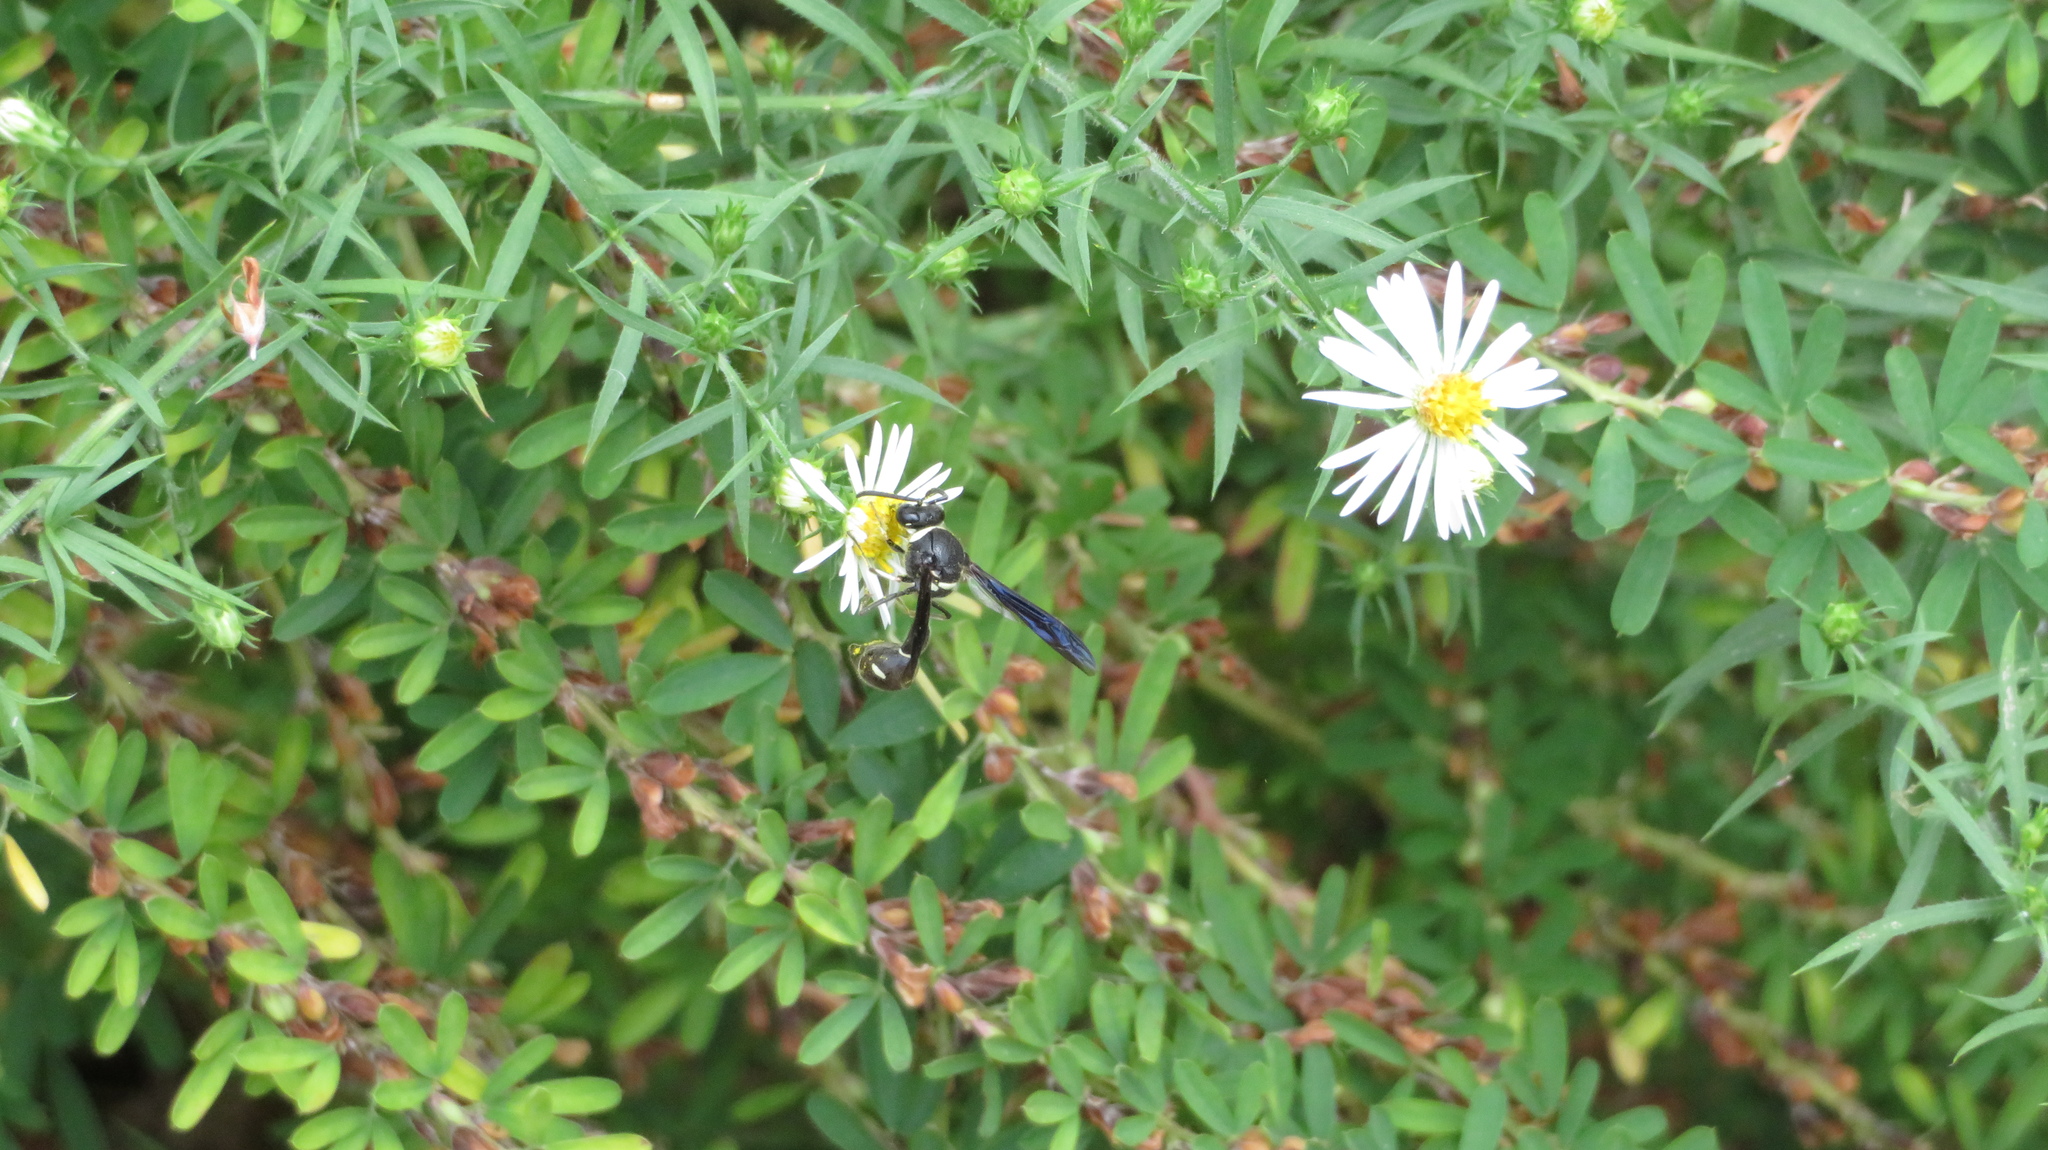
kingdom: Animalia
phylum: Arthropoda
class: Insecta
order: Hymenoptera
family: Vespidae
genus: Eumenes
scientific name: Eumenes fraternus
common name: Fraternal potter wasp
